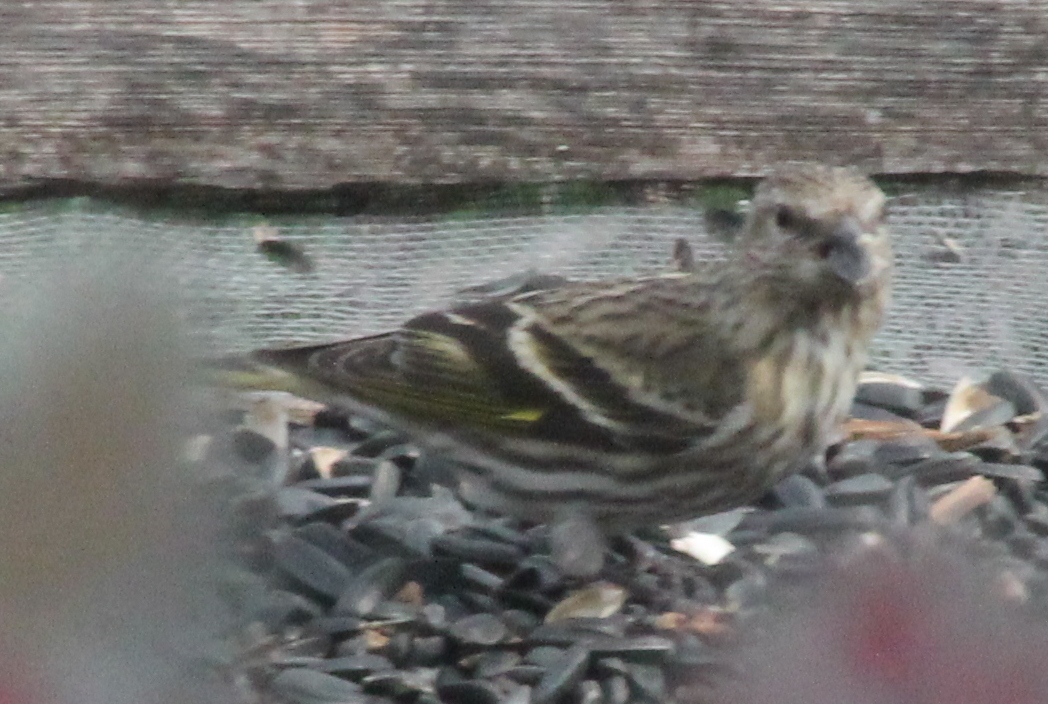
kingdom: Animalia
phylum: Chordata
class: Aves
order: Passeriformes
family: Fringillidae
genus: Spinus
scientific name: Spinus pinus
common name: Pine siskin
